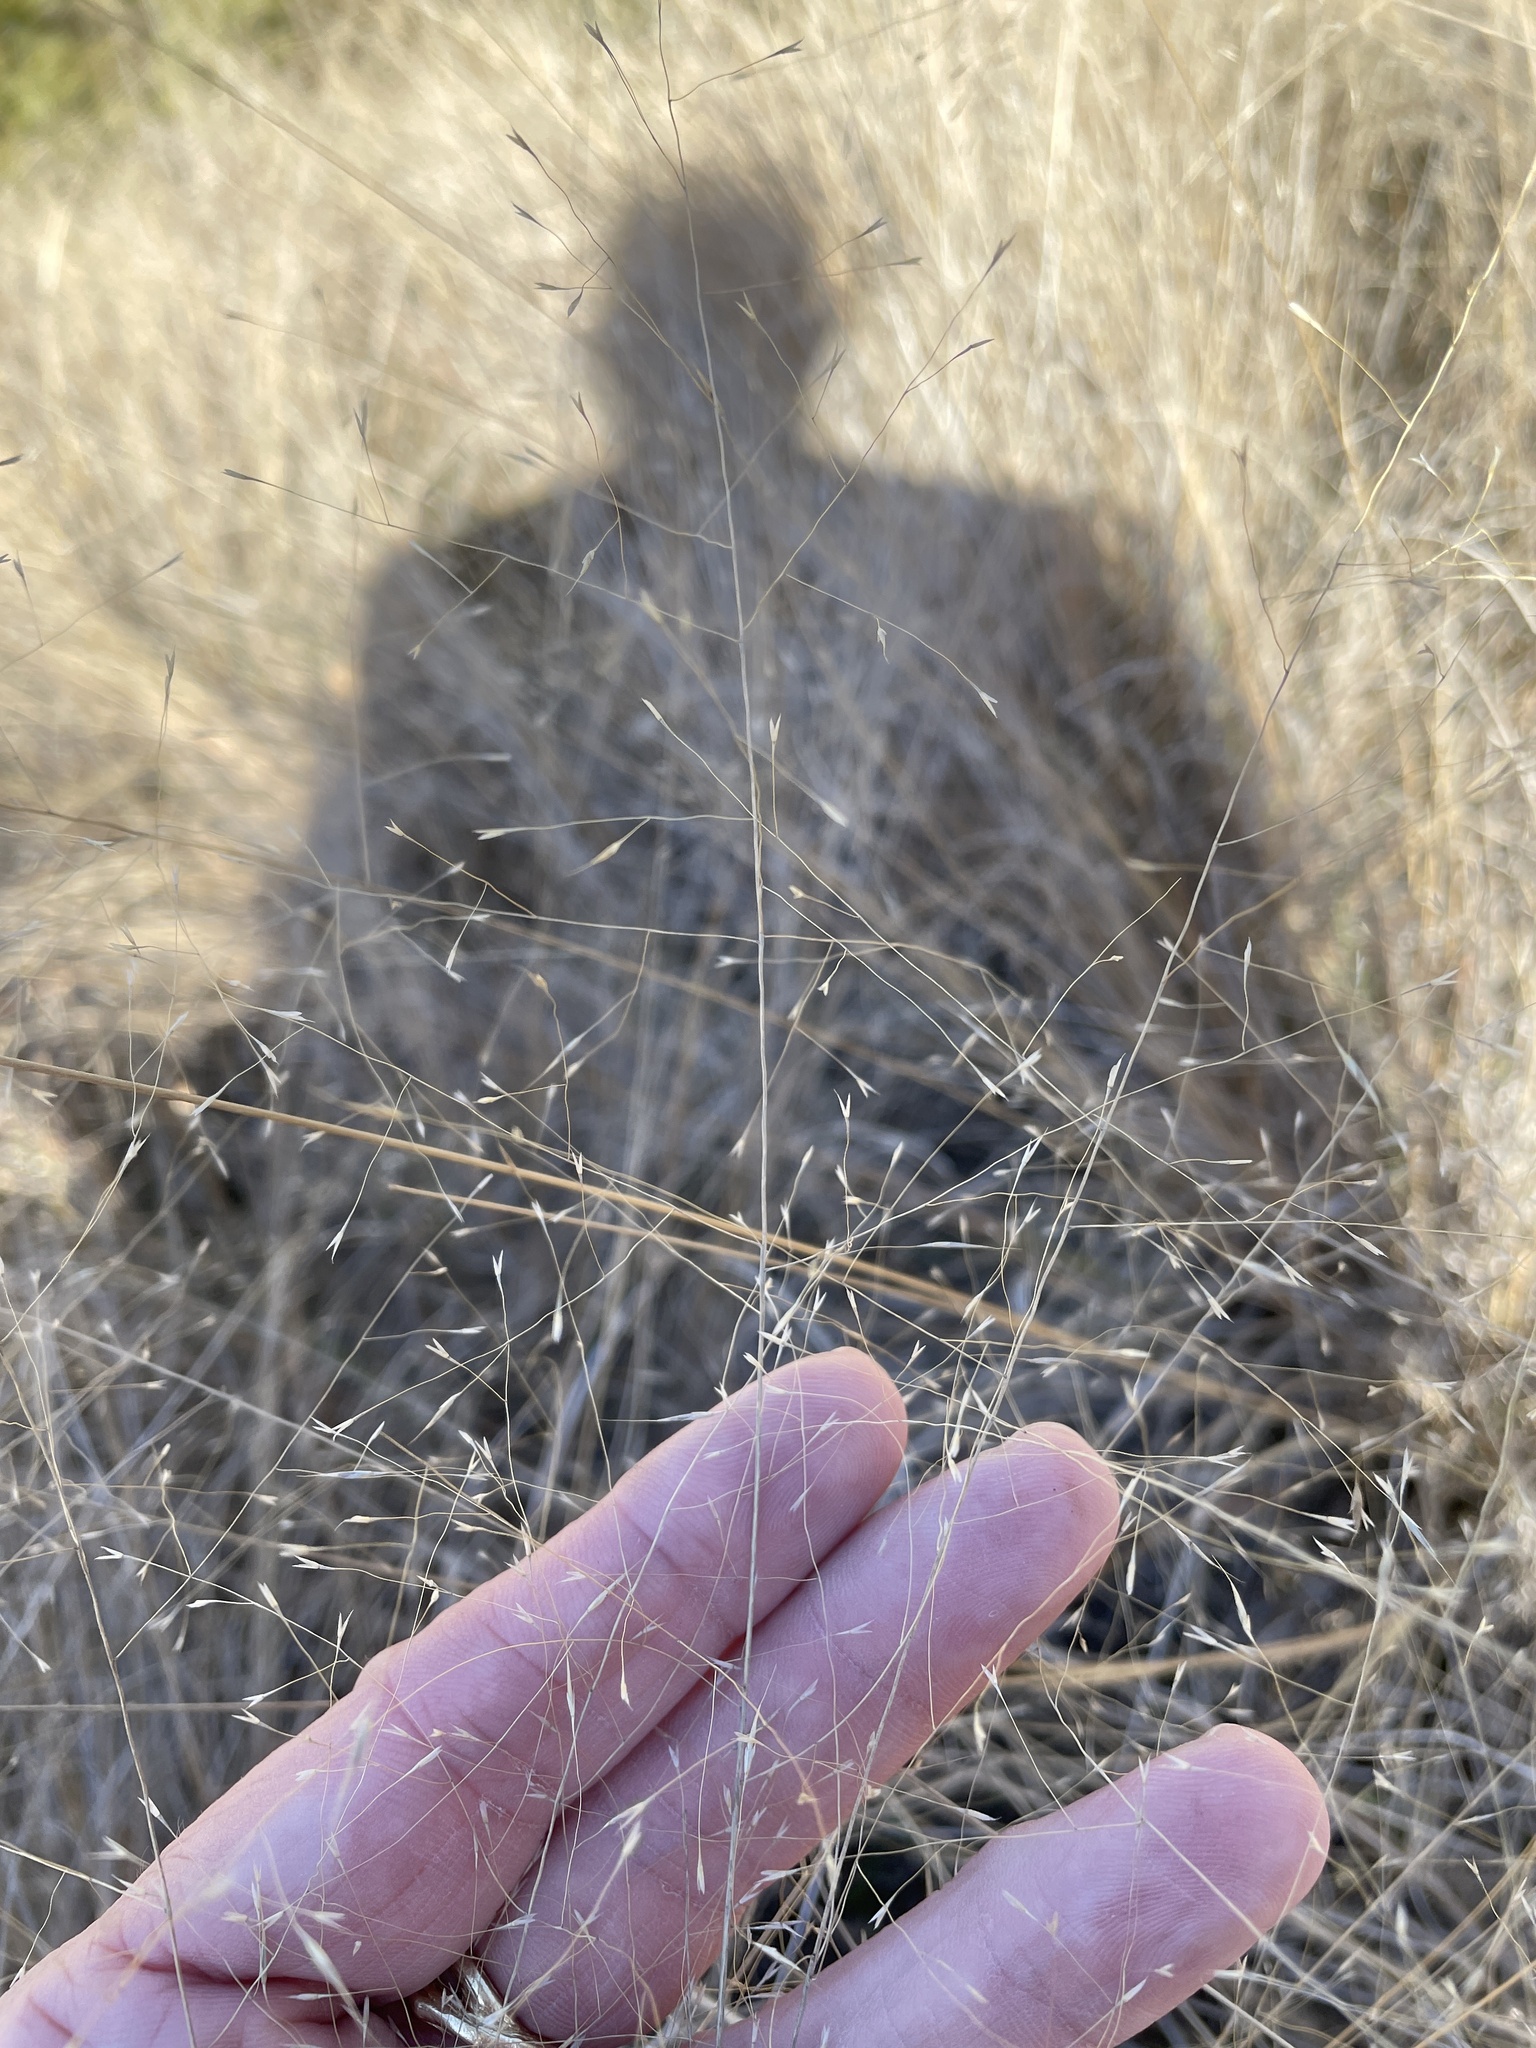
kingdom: Plantae
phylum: Tracheophyta
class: Liliopsida
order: Poales
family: Poaceae
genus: Muhlenbergia
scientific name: Muhlenbergia reverchonii
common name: Seep muhly
